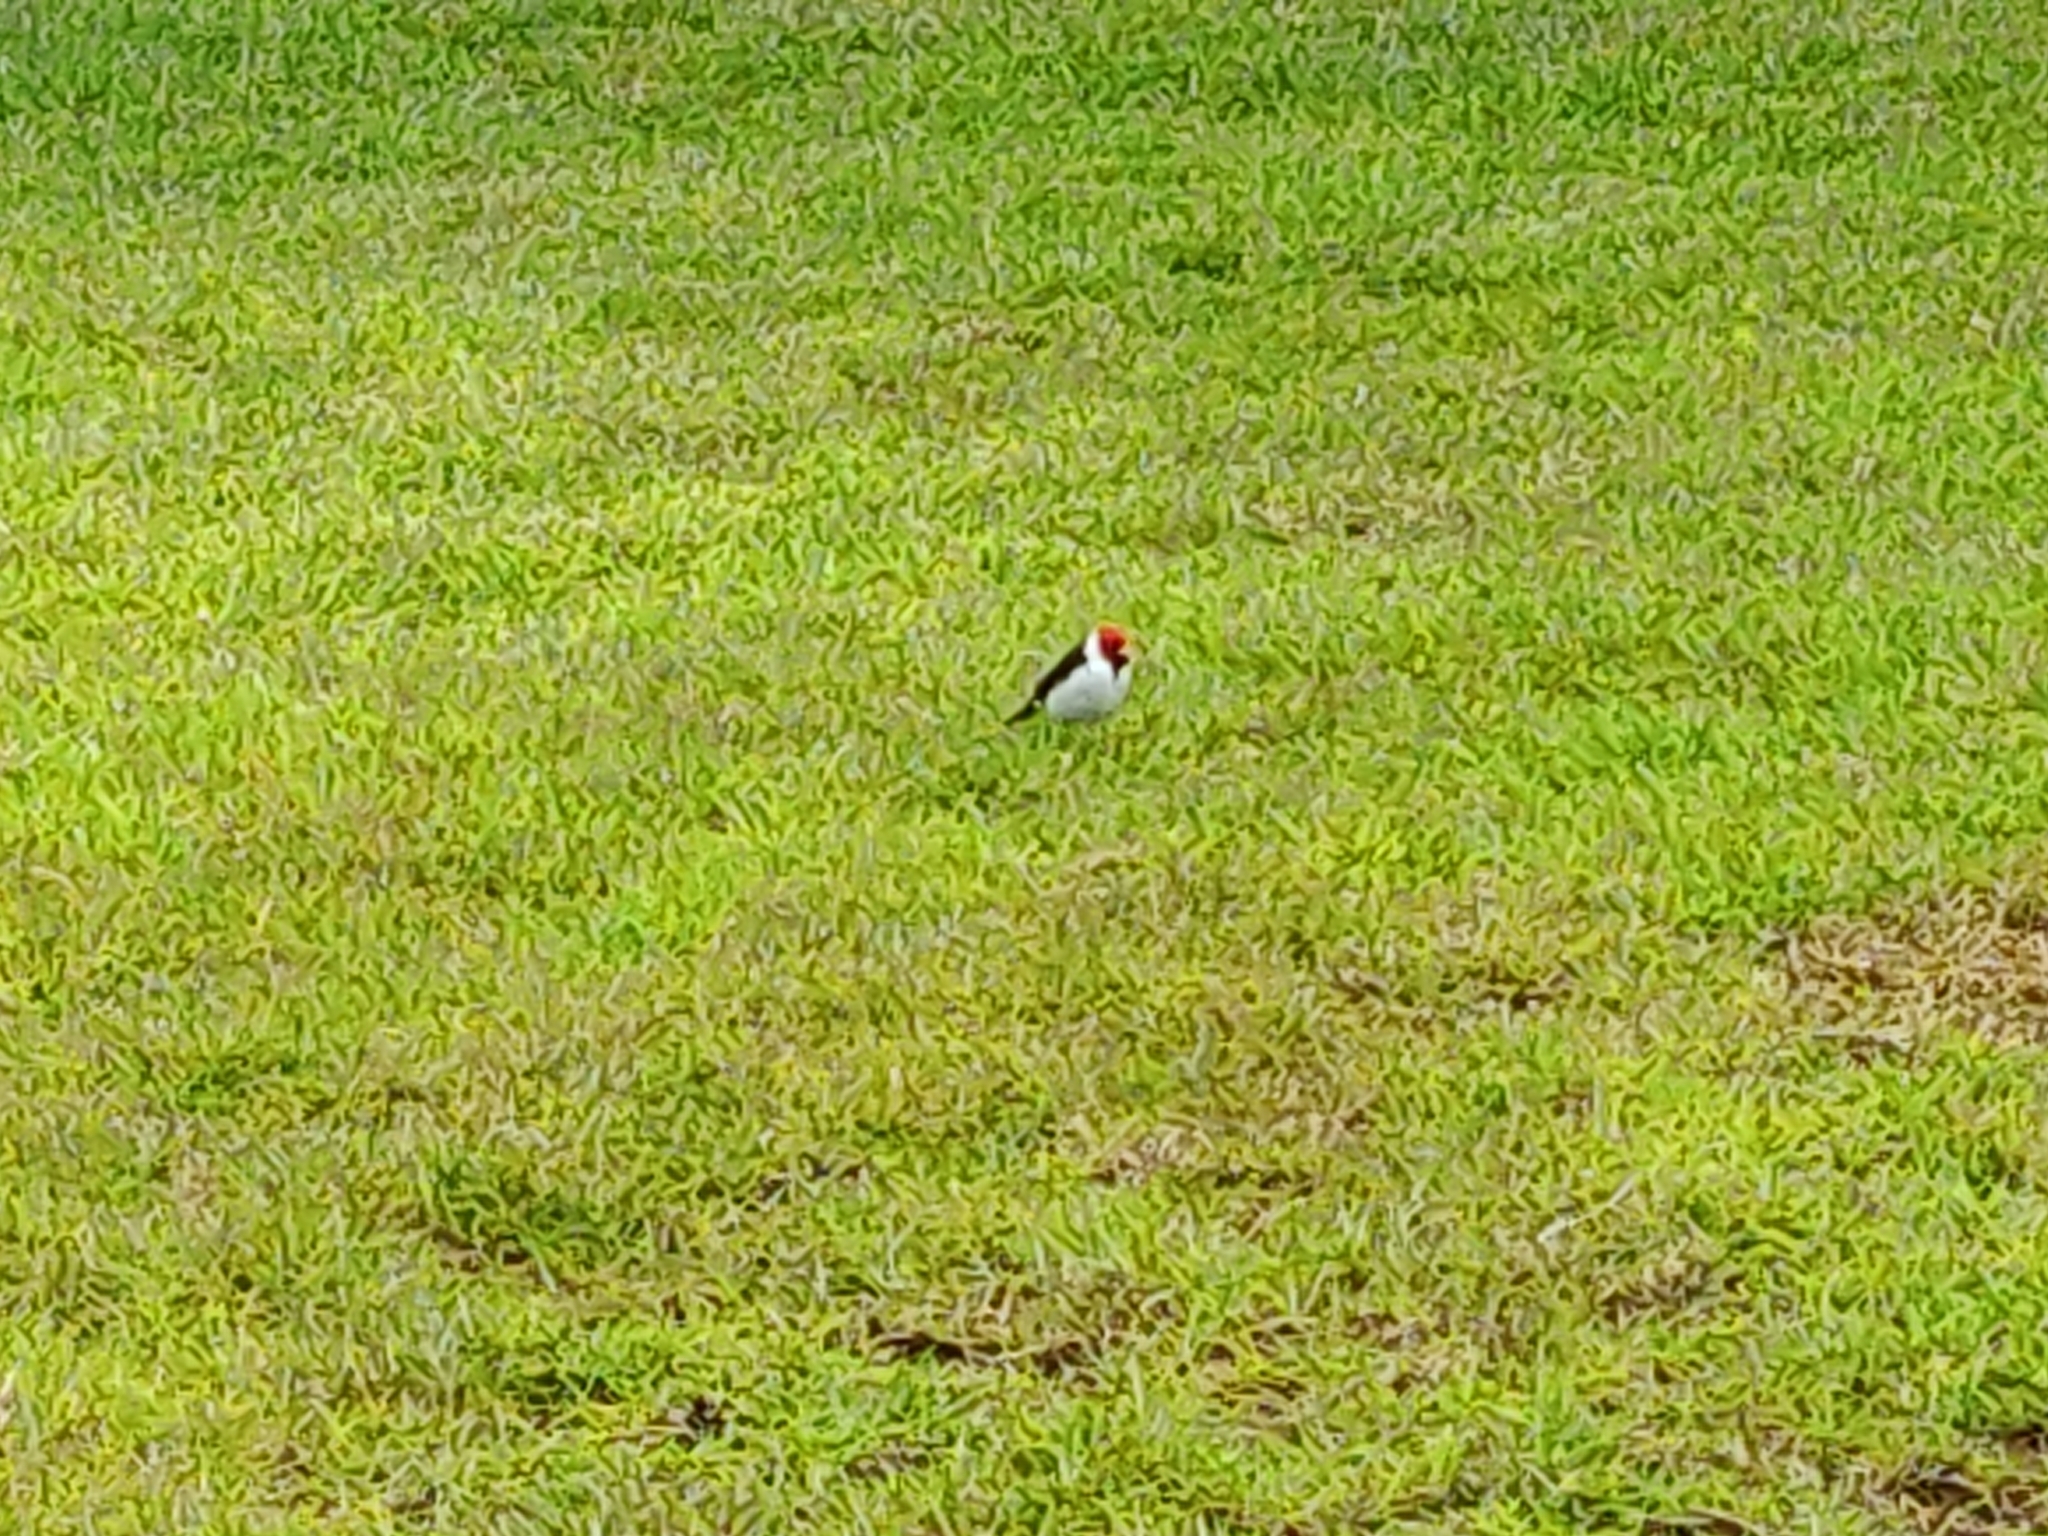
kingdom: Animalia
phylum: Chordata
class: Aves
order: Passeriformes
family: Thraupidae
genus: Paroaria
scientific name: Paroaria capitata
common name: Yellow-billed cardinal
